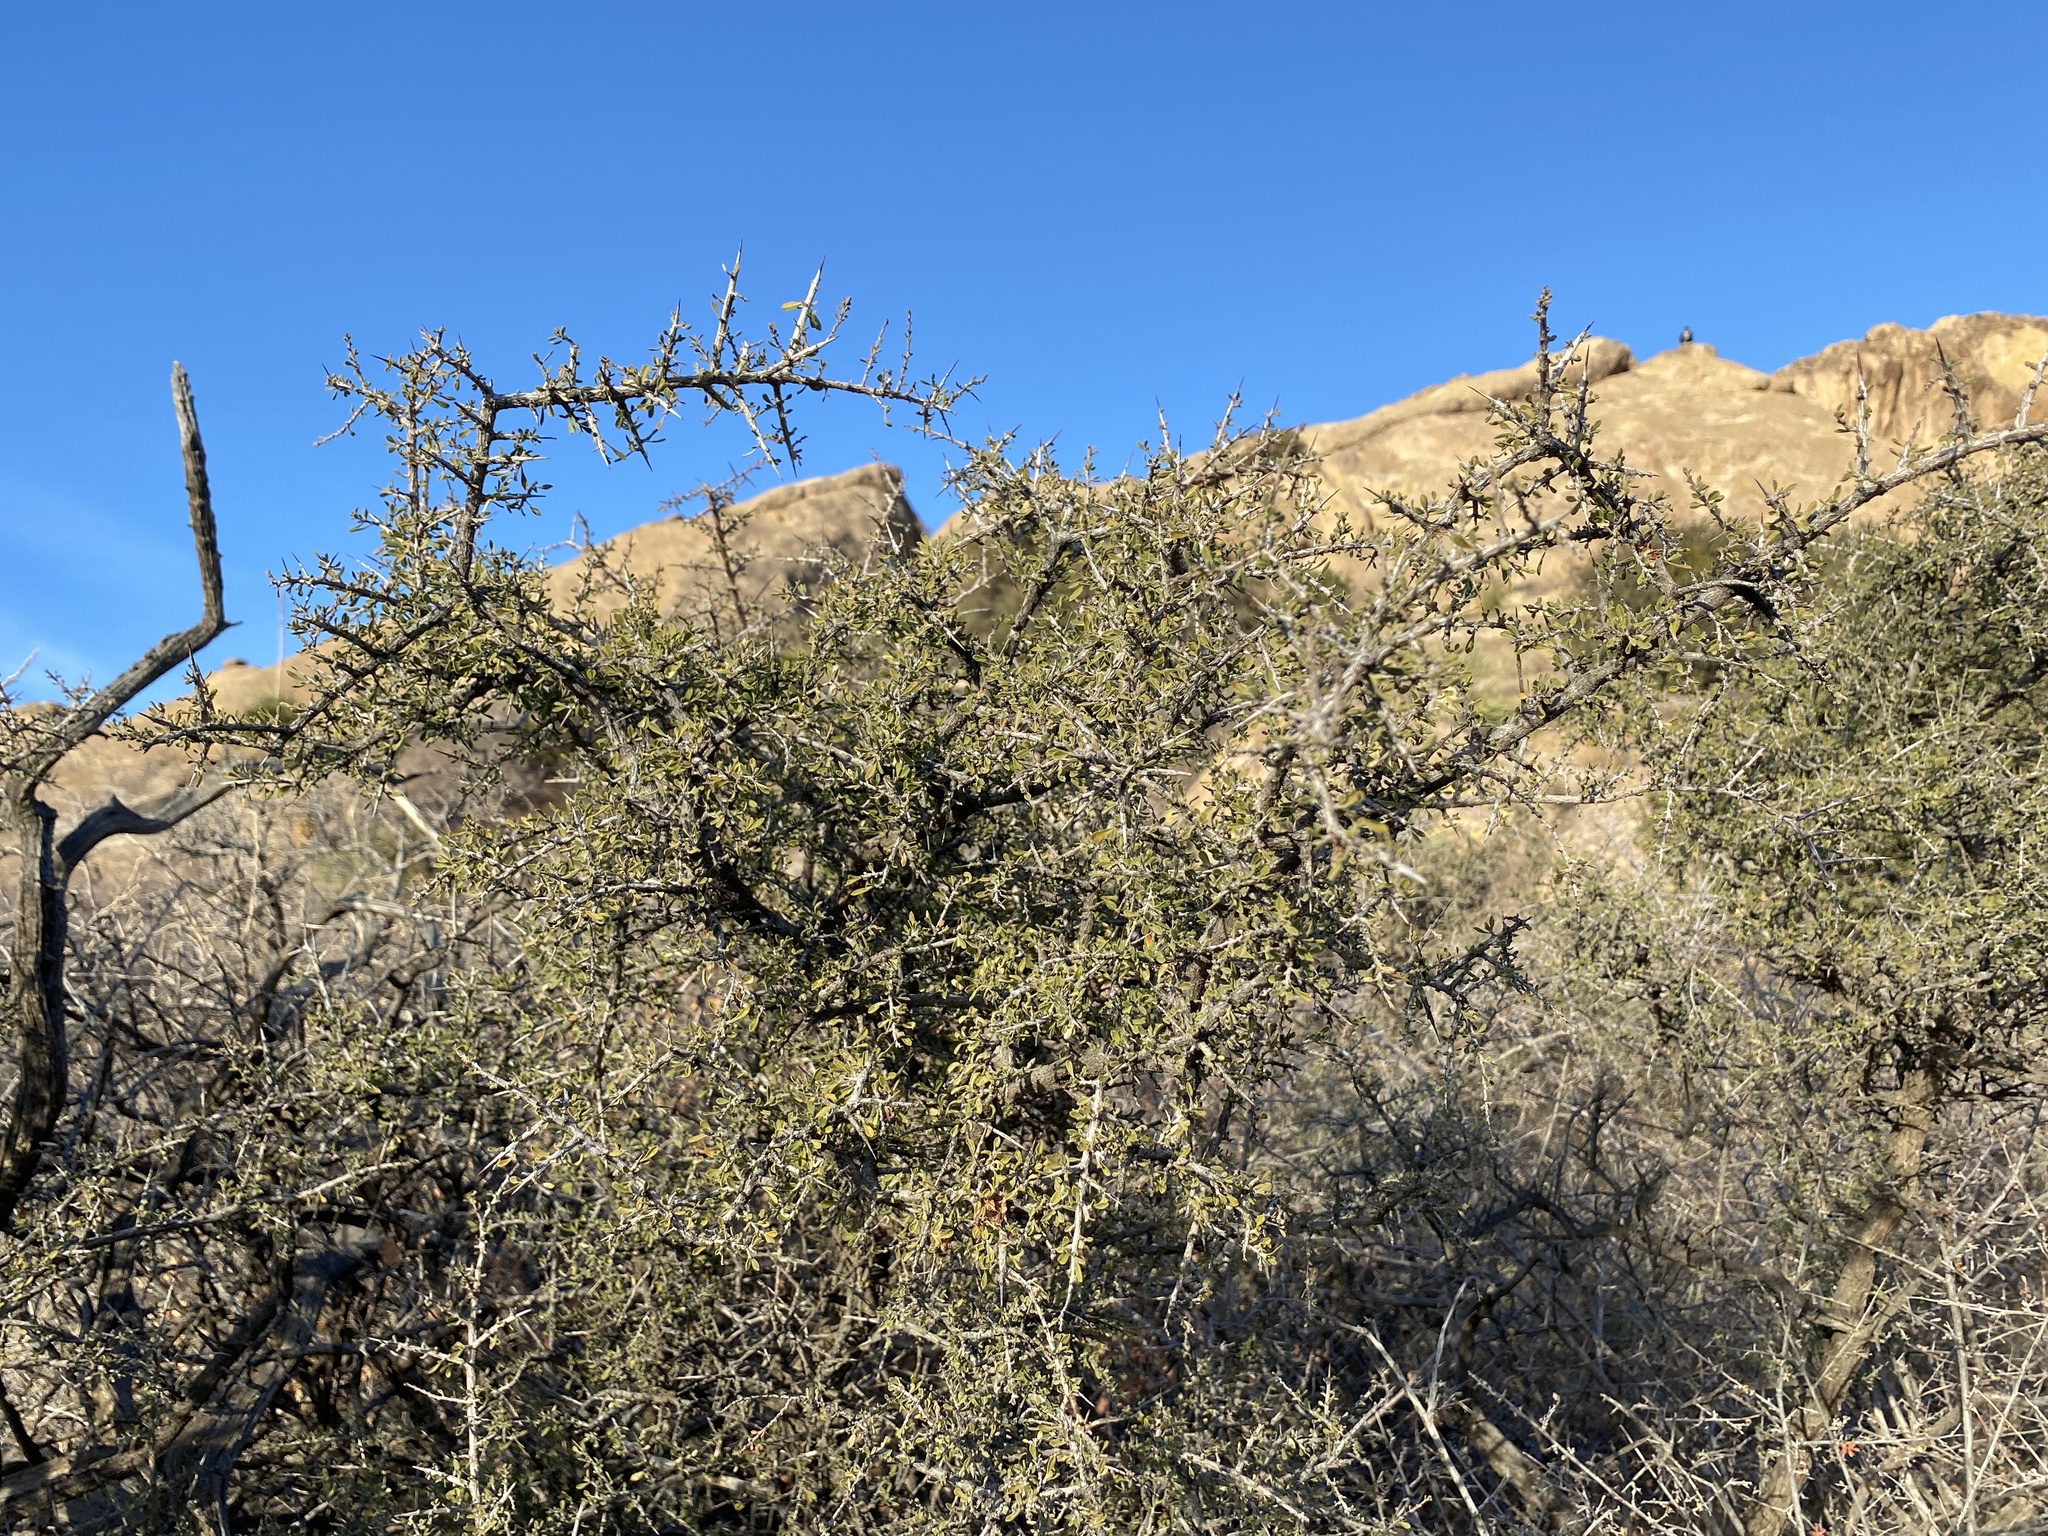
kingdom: Plantae
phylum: Tracheophyta
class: Magnoliopsida
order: Rosales
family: Rhamnaceae
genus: Condalia
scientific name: Condalia warnockii
